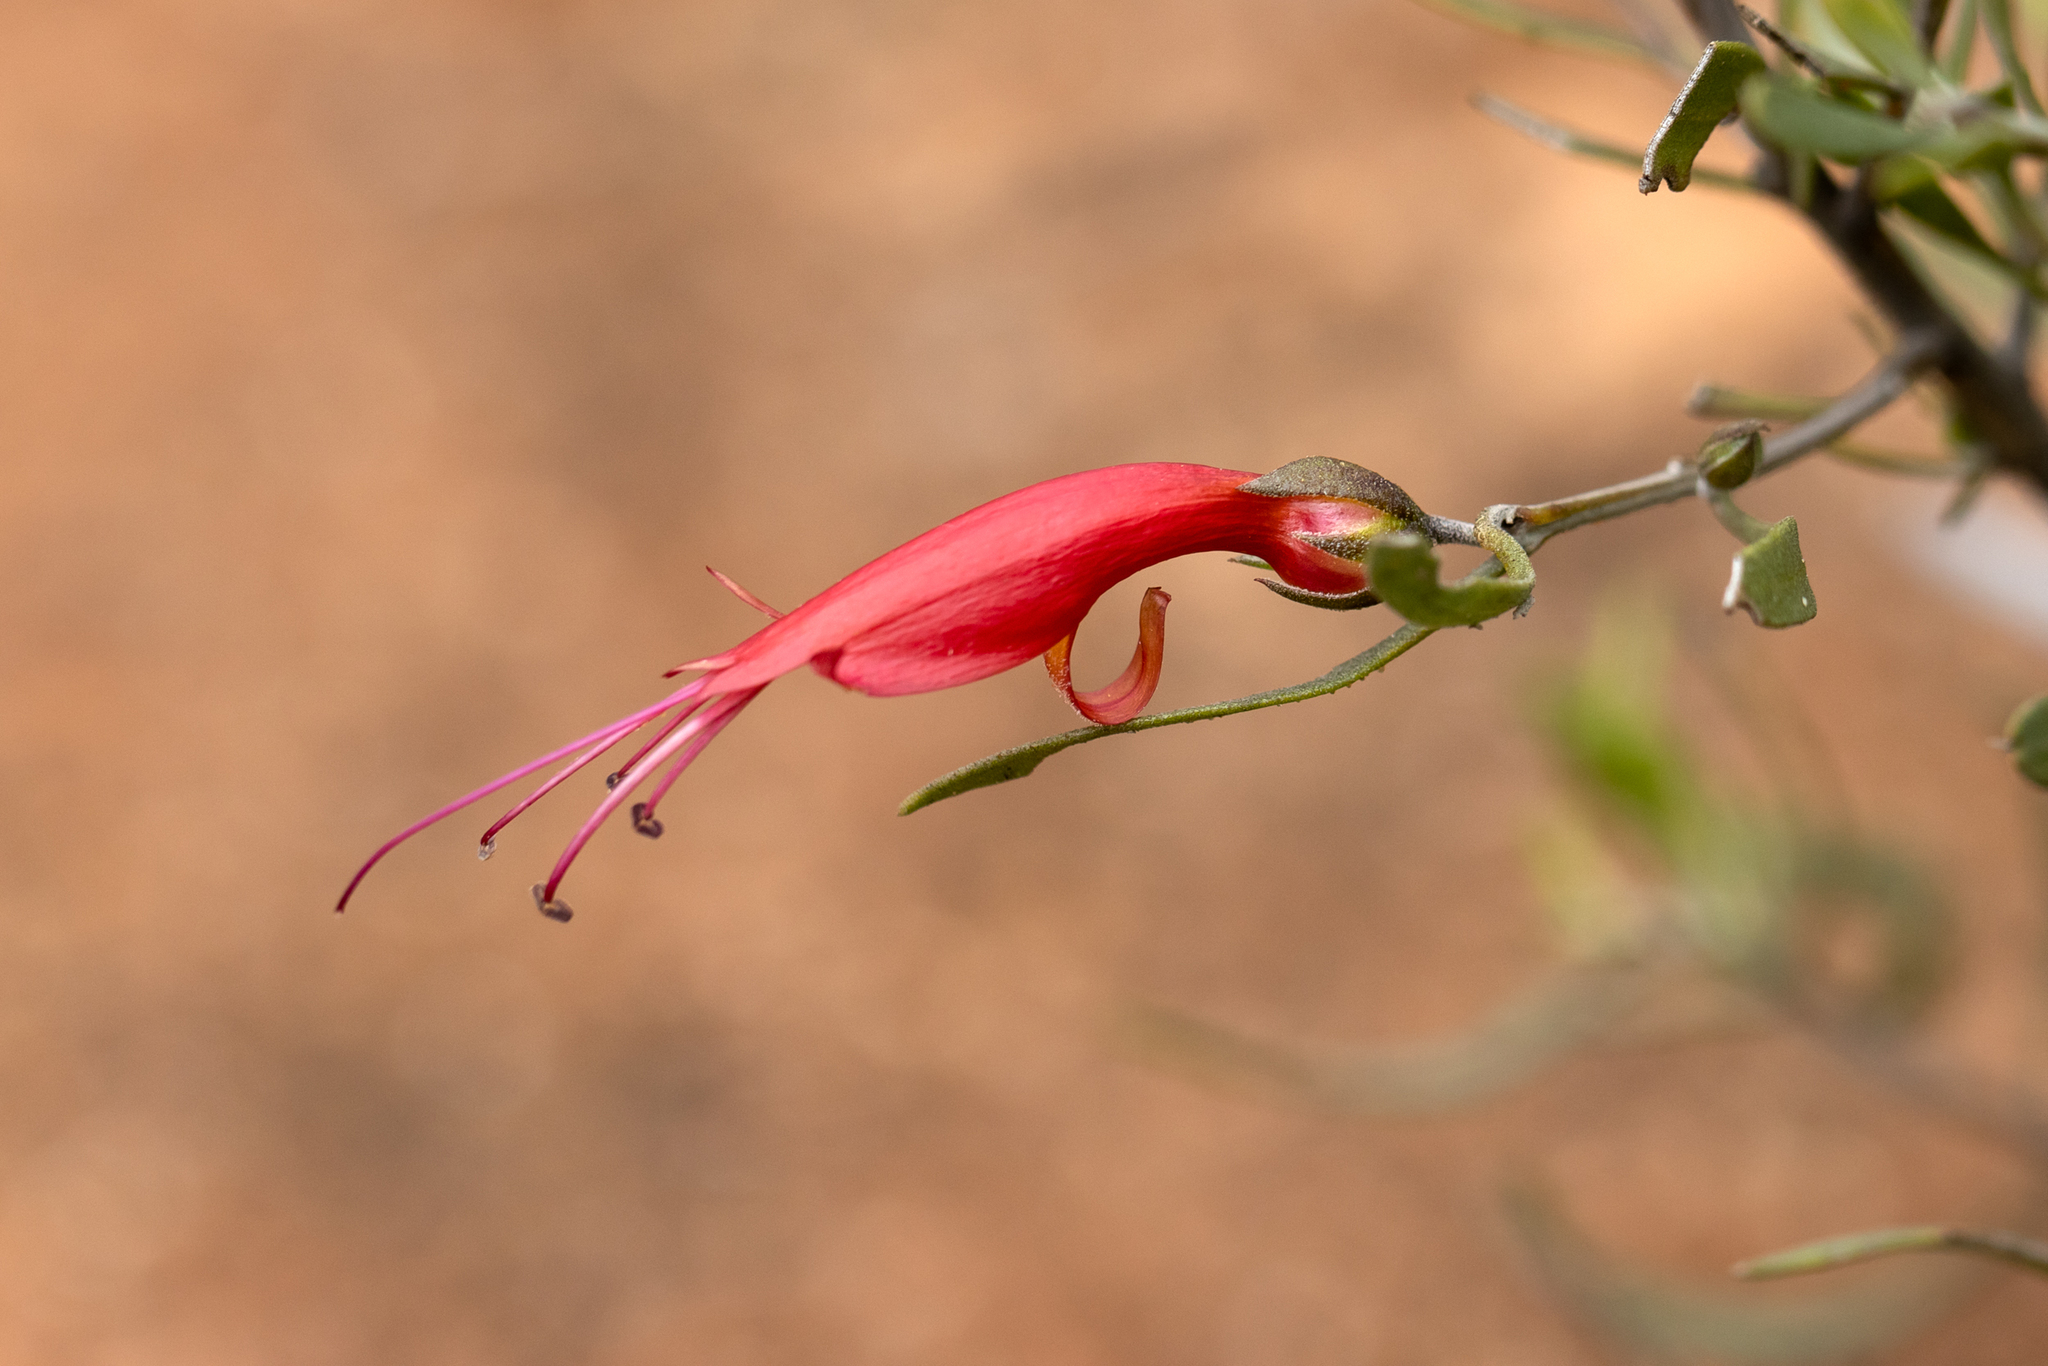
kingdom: Plantae
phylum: Tracheophyta
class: Magnoliopsida
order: Lamiales
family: Scrophulariaceae
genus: Eremophila
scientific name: Eremophila glabra
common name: Black-fuchsia
